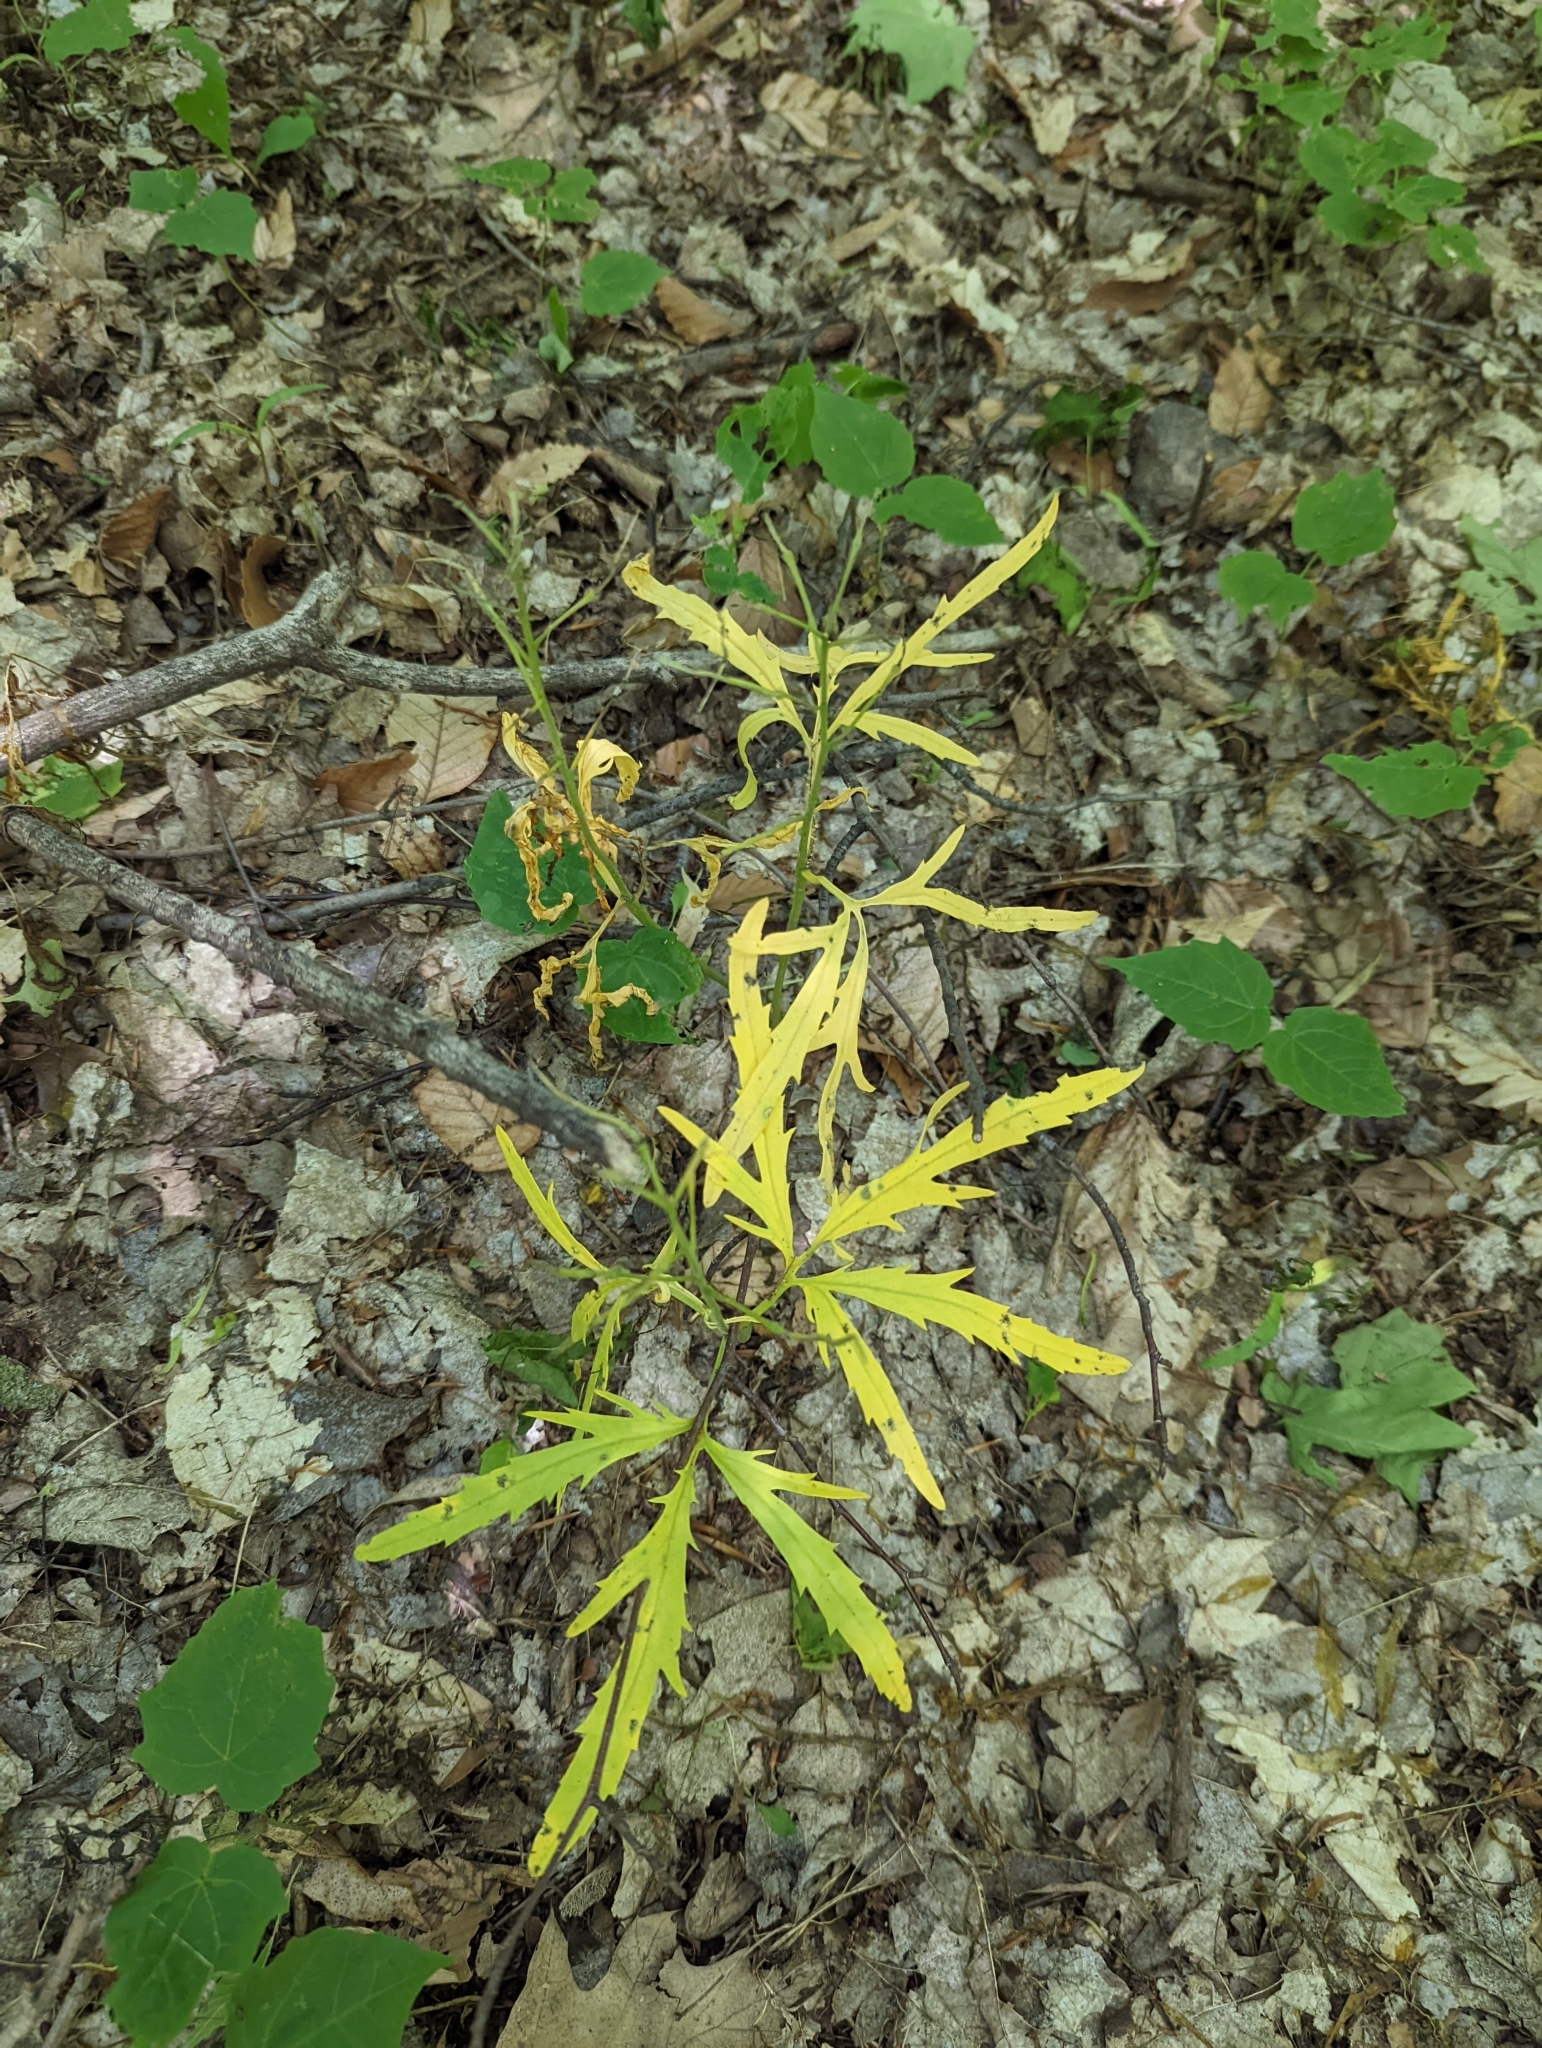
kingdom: Plantae
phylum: Tracheophyta
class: Magnoliopsida
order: Brassicales
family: Brassicaceae
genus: Cardamine
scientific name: Cardamine concatenata
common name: Cut-leaf toothcup
